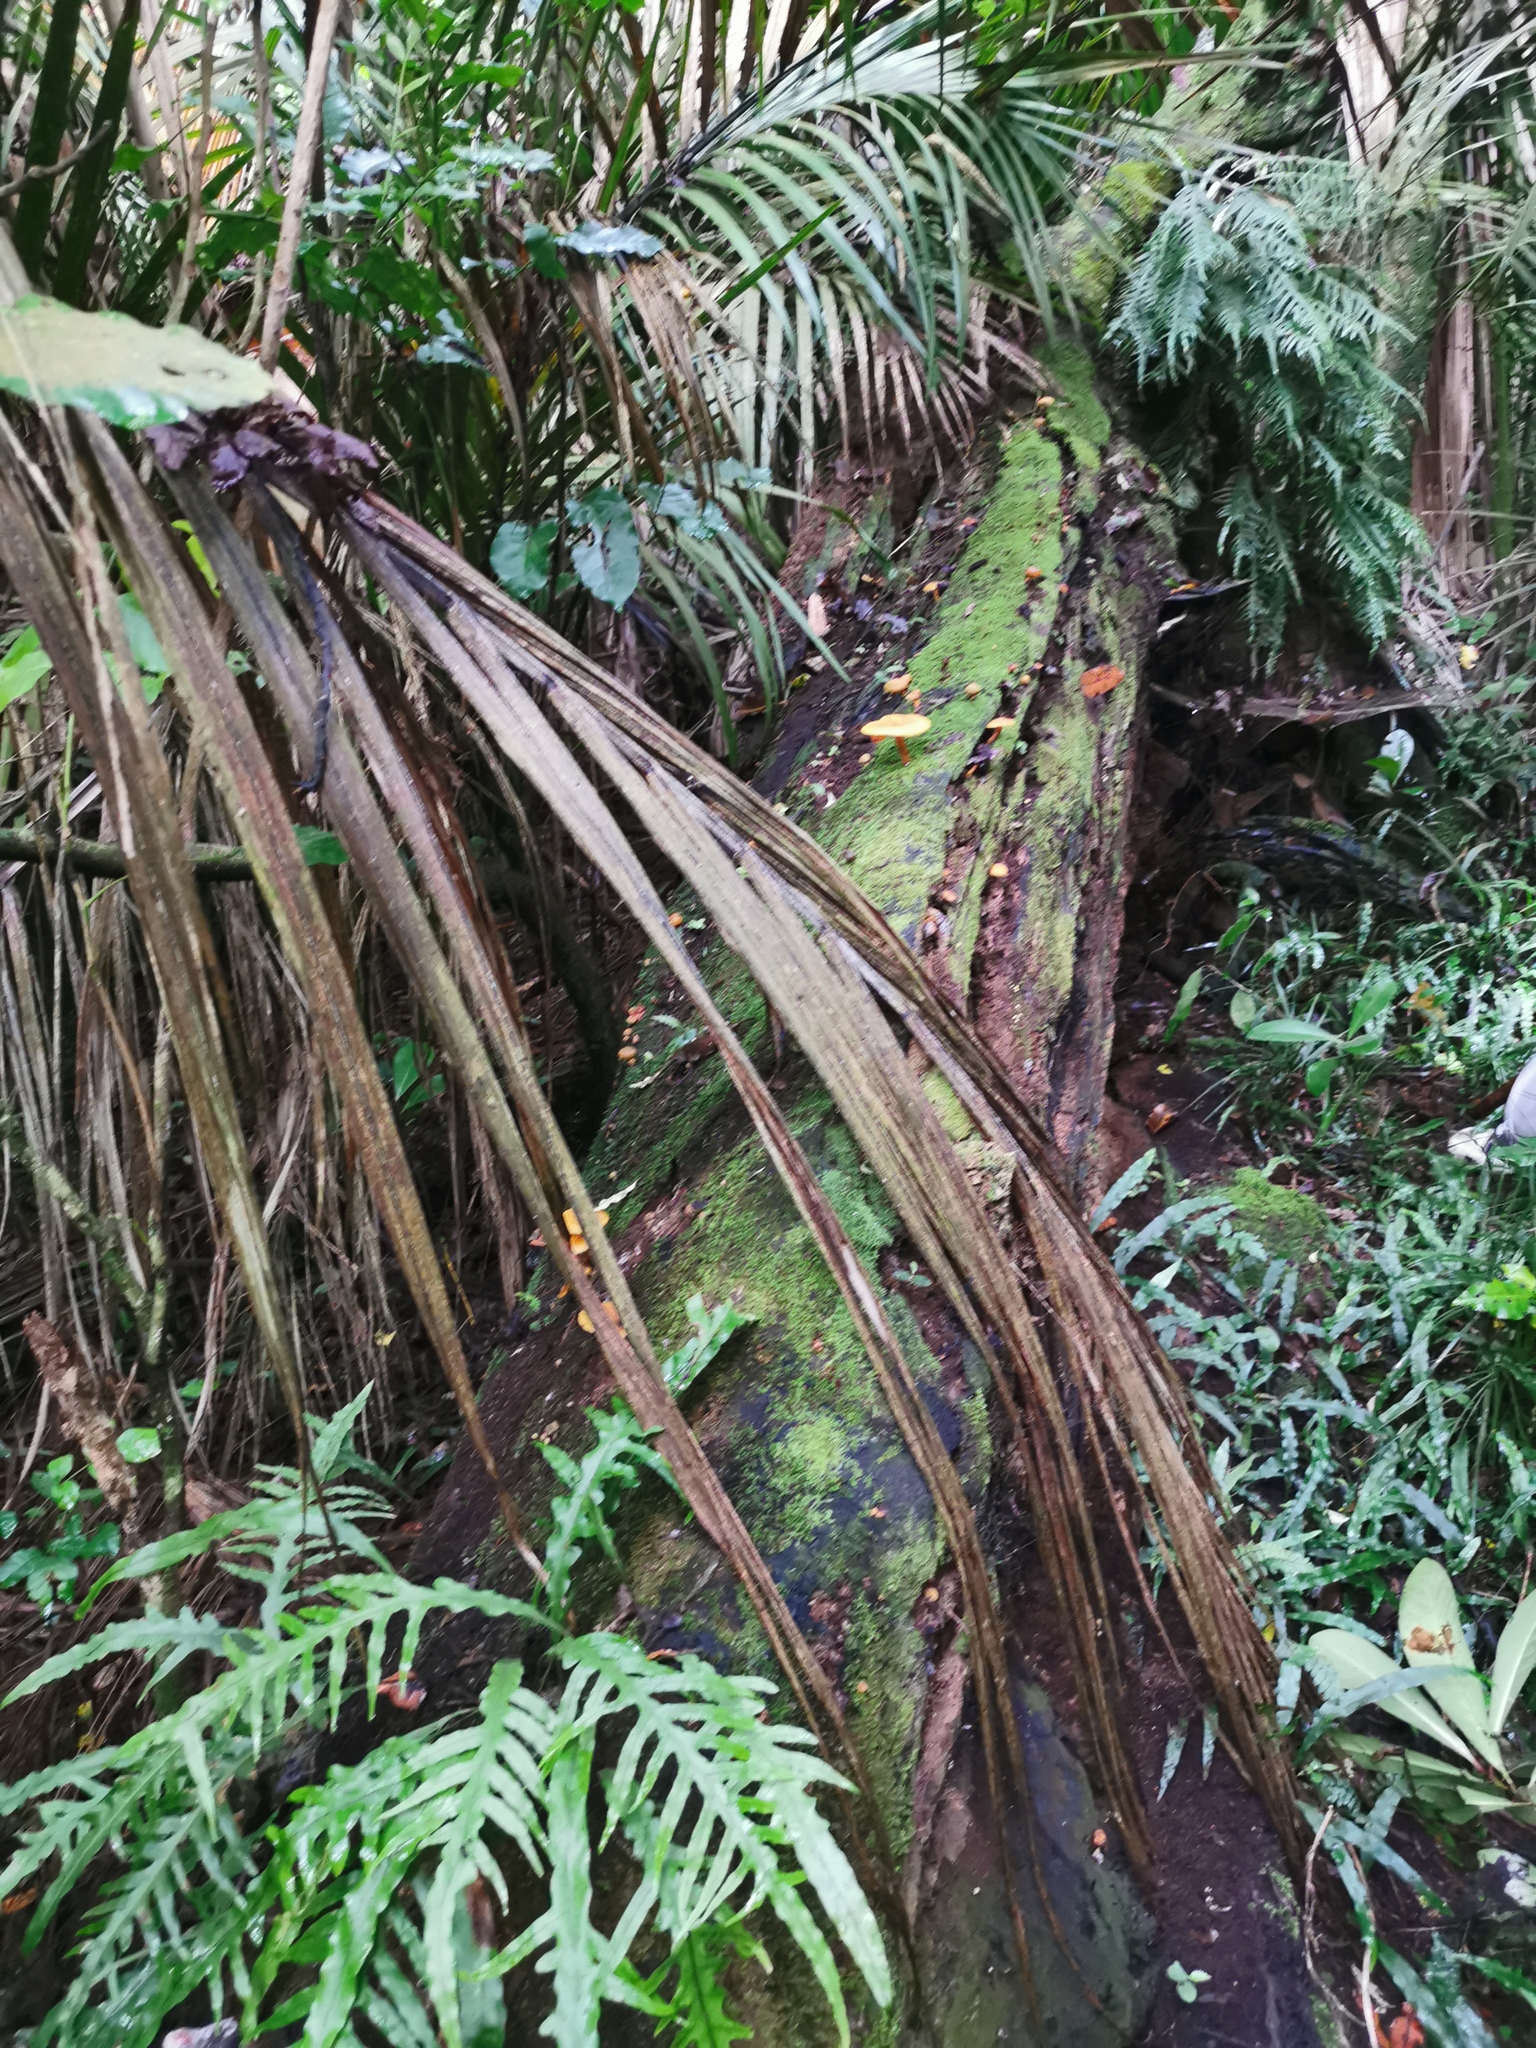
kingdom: Fungi
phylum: Basidiomycota
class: Agaricomycetes
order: Agaricales
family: Mycenaceae
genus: Heimiomyces
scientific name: Heimiomyces velutipes
